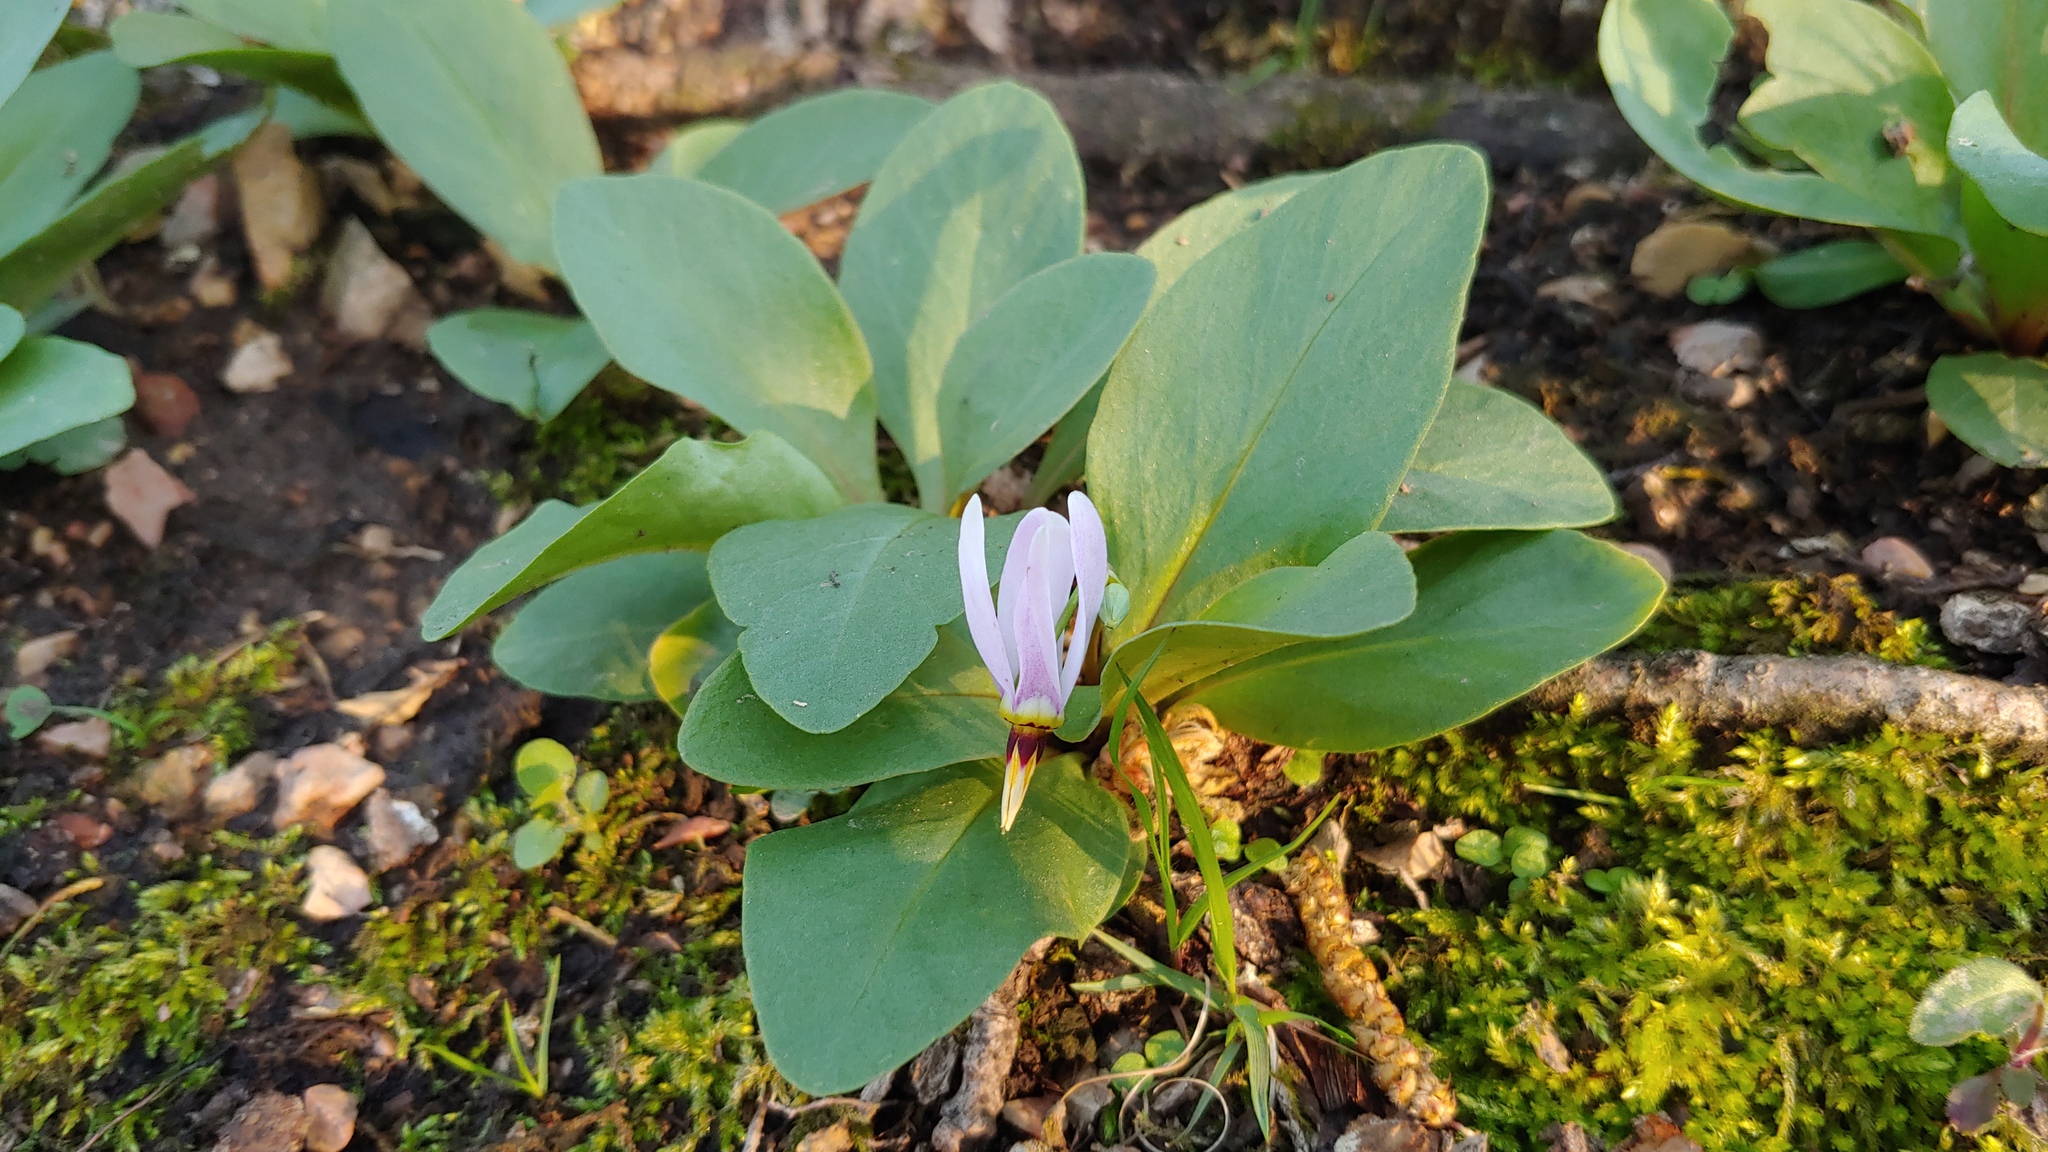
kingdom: Plantae
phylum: Tracheophyta
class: Magnoliopsida
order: Ericales
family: Primulaceae
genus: Dodecatheon
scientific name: Dodecatheon meadia
